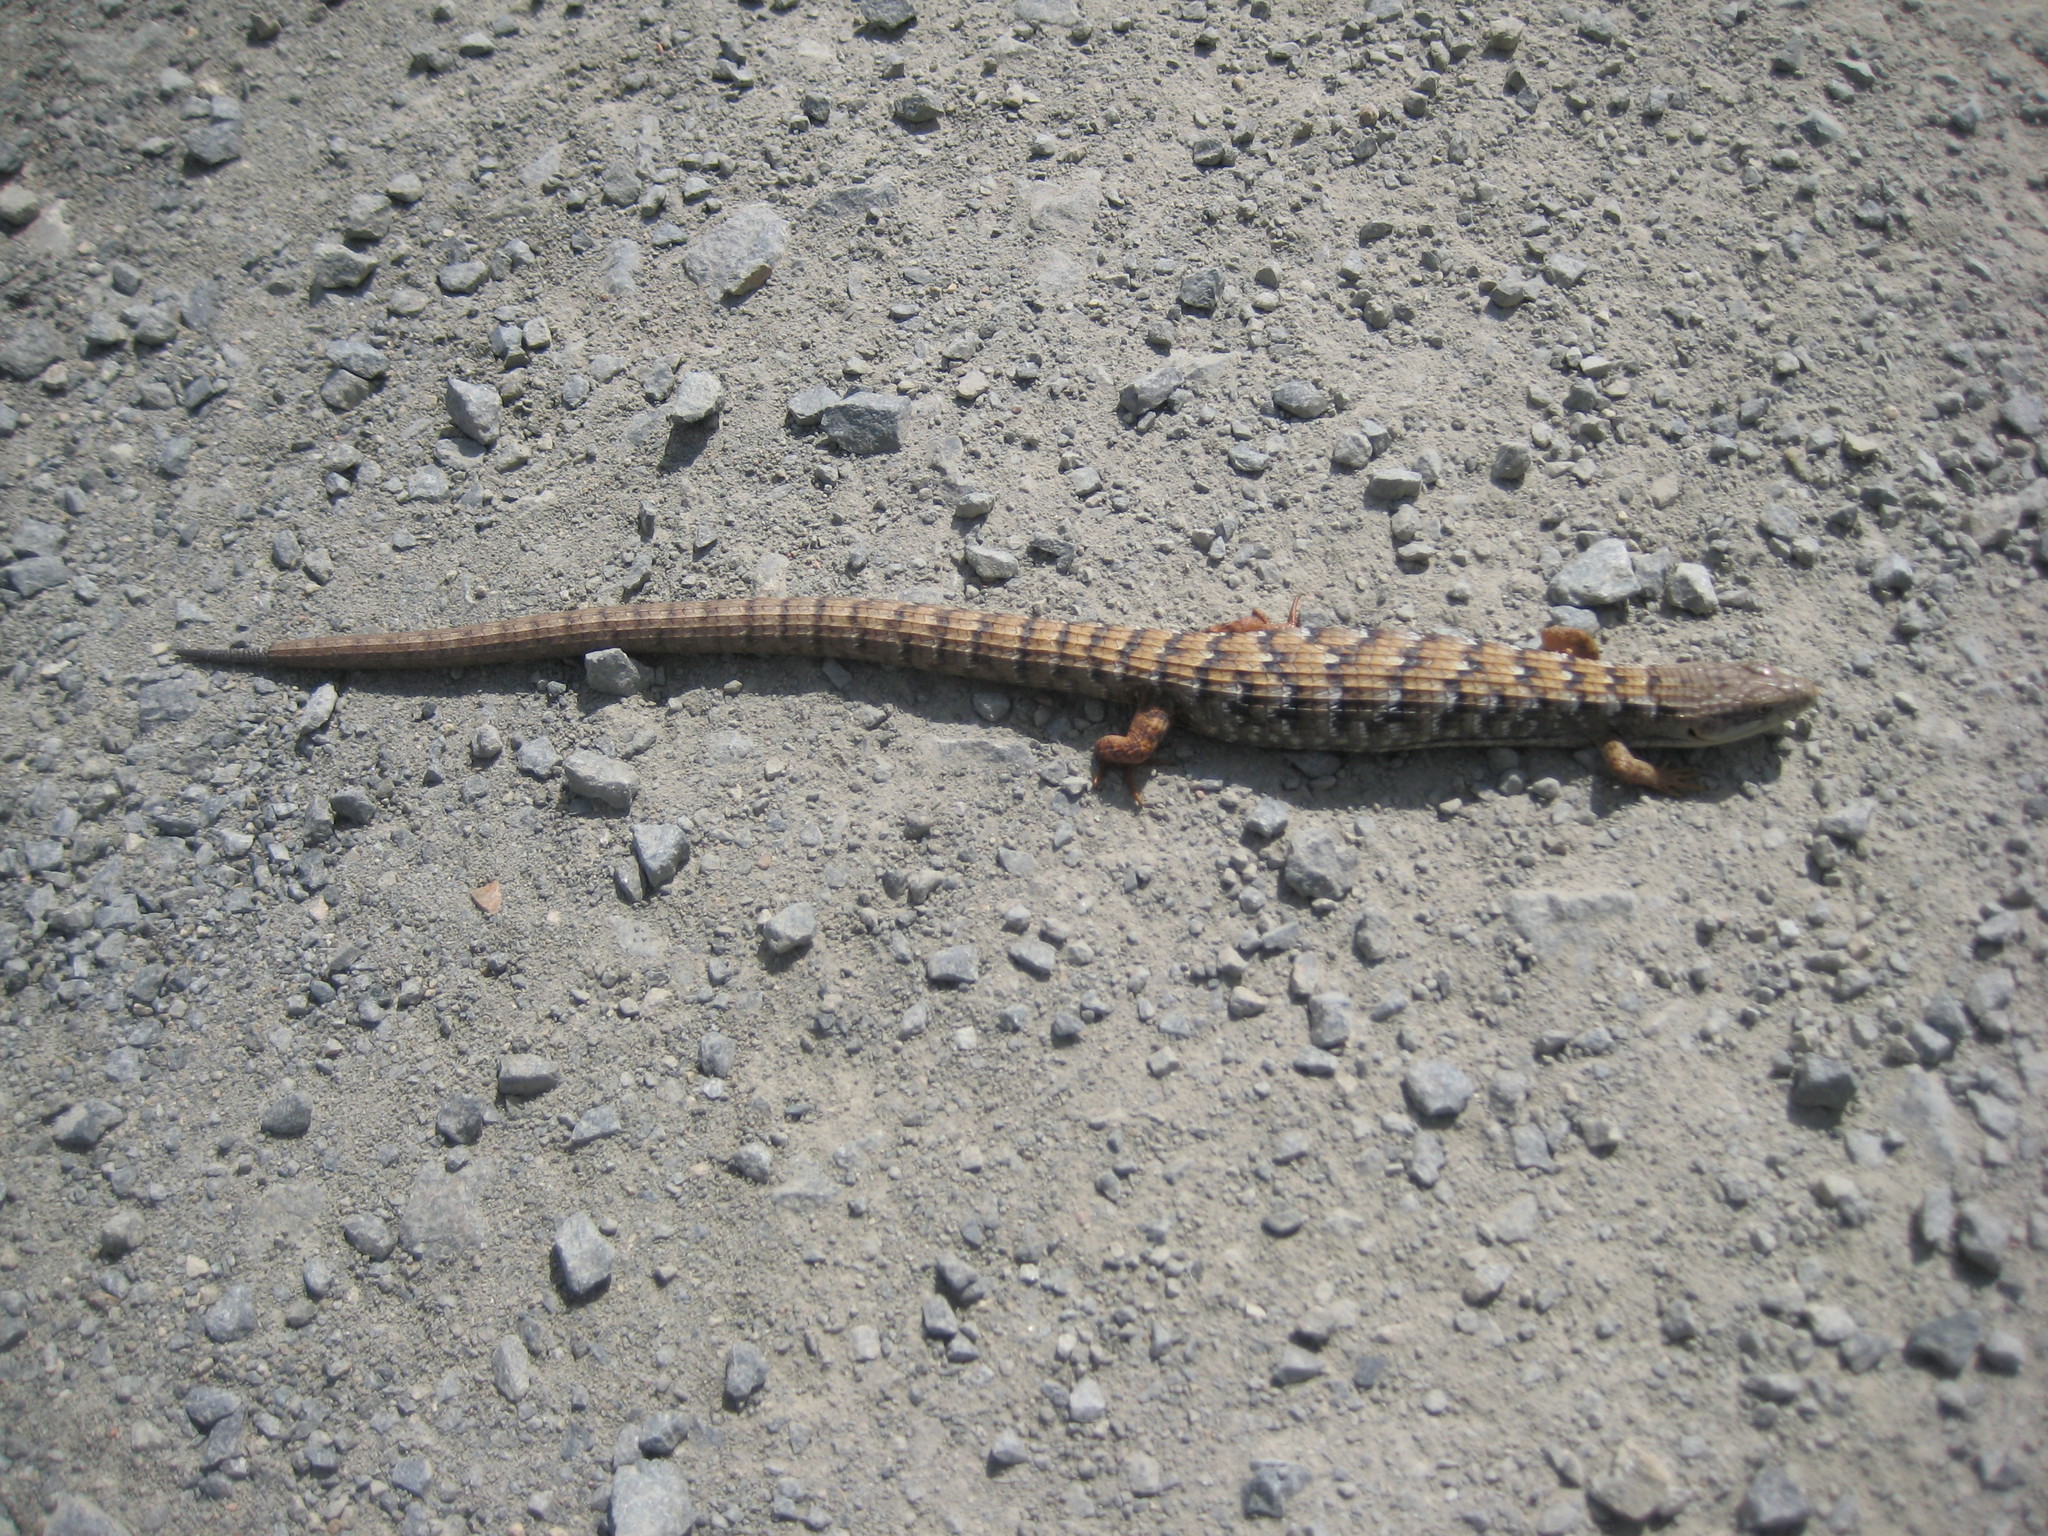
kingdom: Animalia
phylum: Chordata
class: Squamata
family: Anguidae
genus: Elgaria
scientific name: Elgaria multicarinata
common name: Southern alligator lizard
